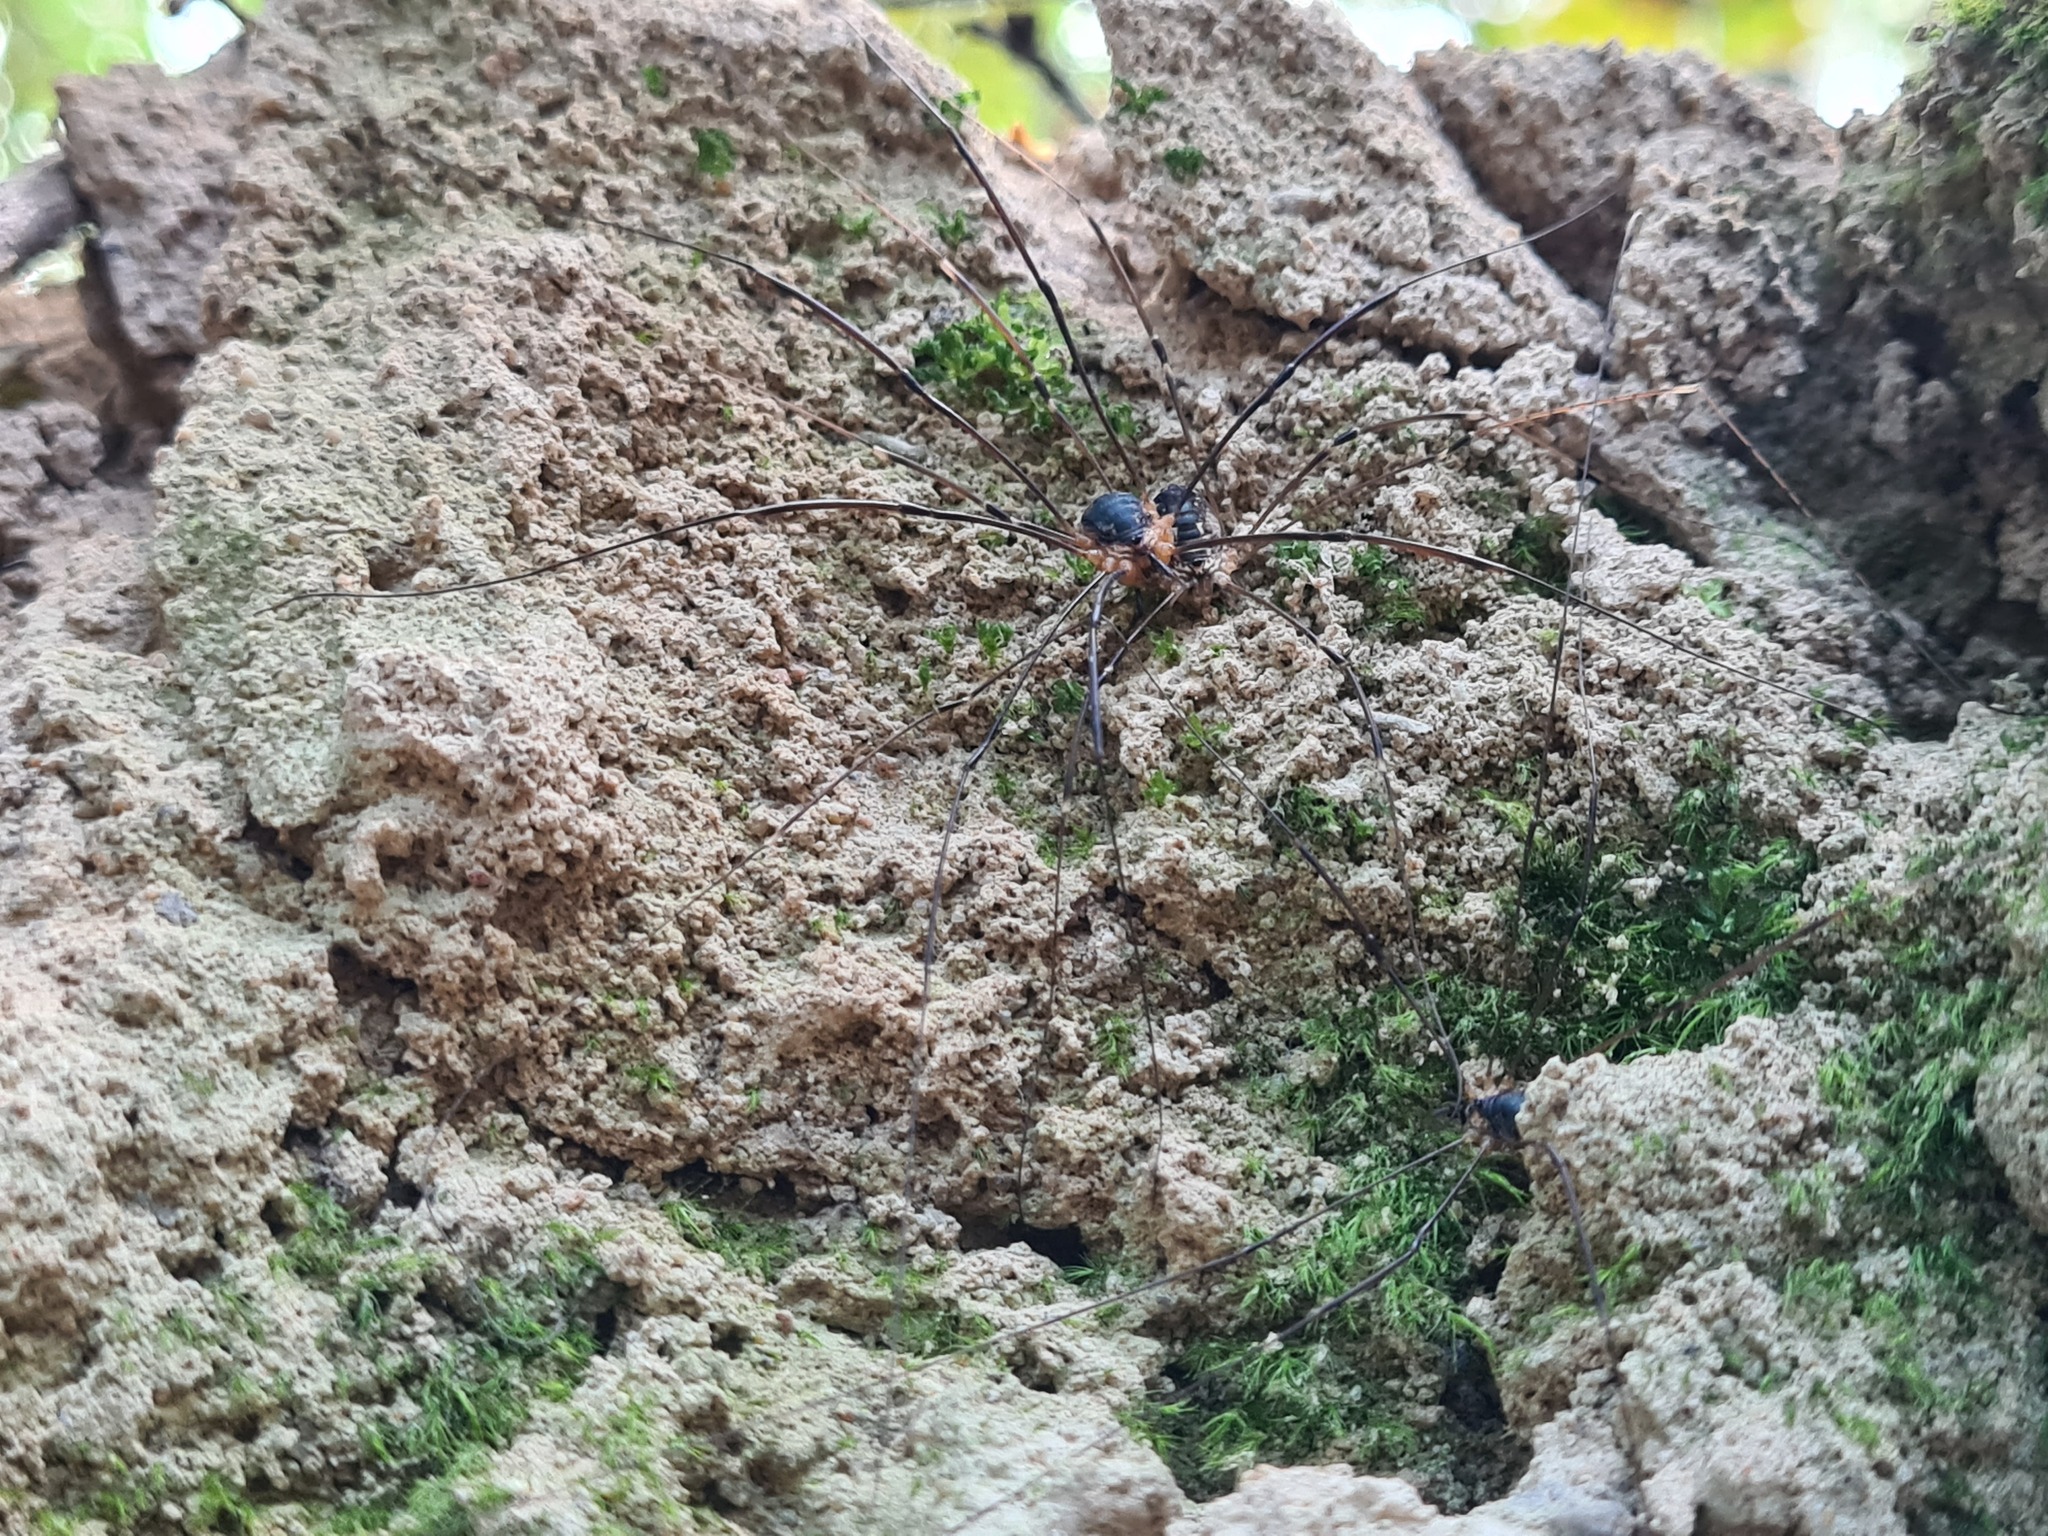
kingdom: Animalia
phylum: Arthropoda
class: Arachnida
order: Opiliones
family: Sclerosomatidae
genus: Leiobunum
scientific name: Leiobunum gracile
